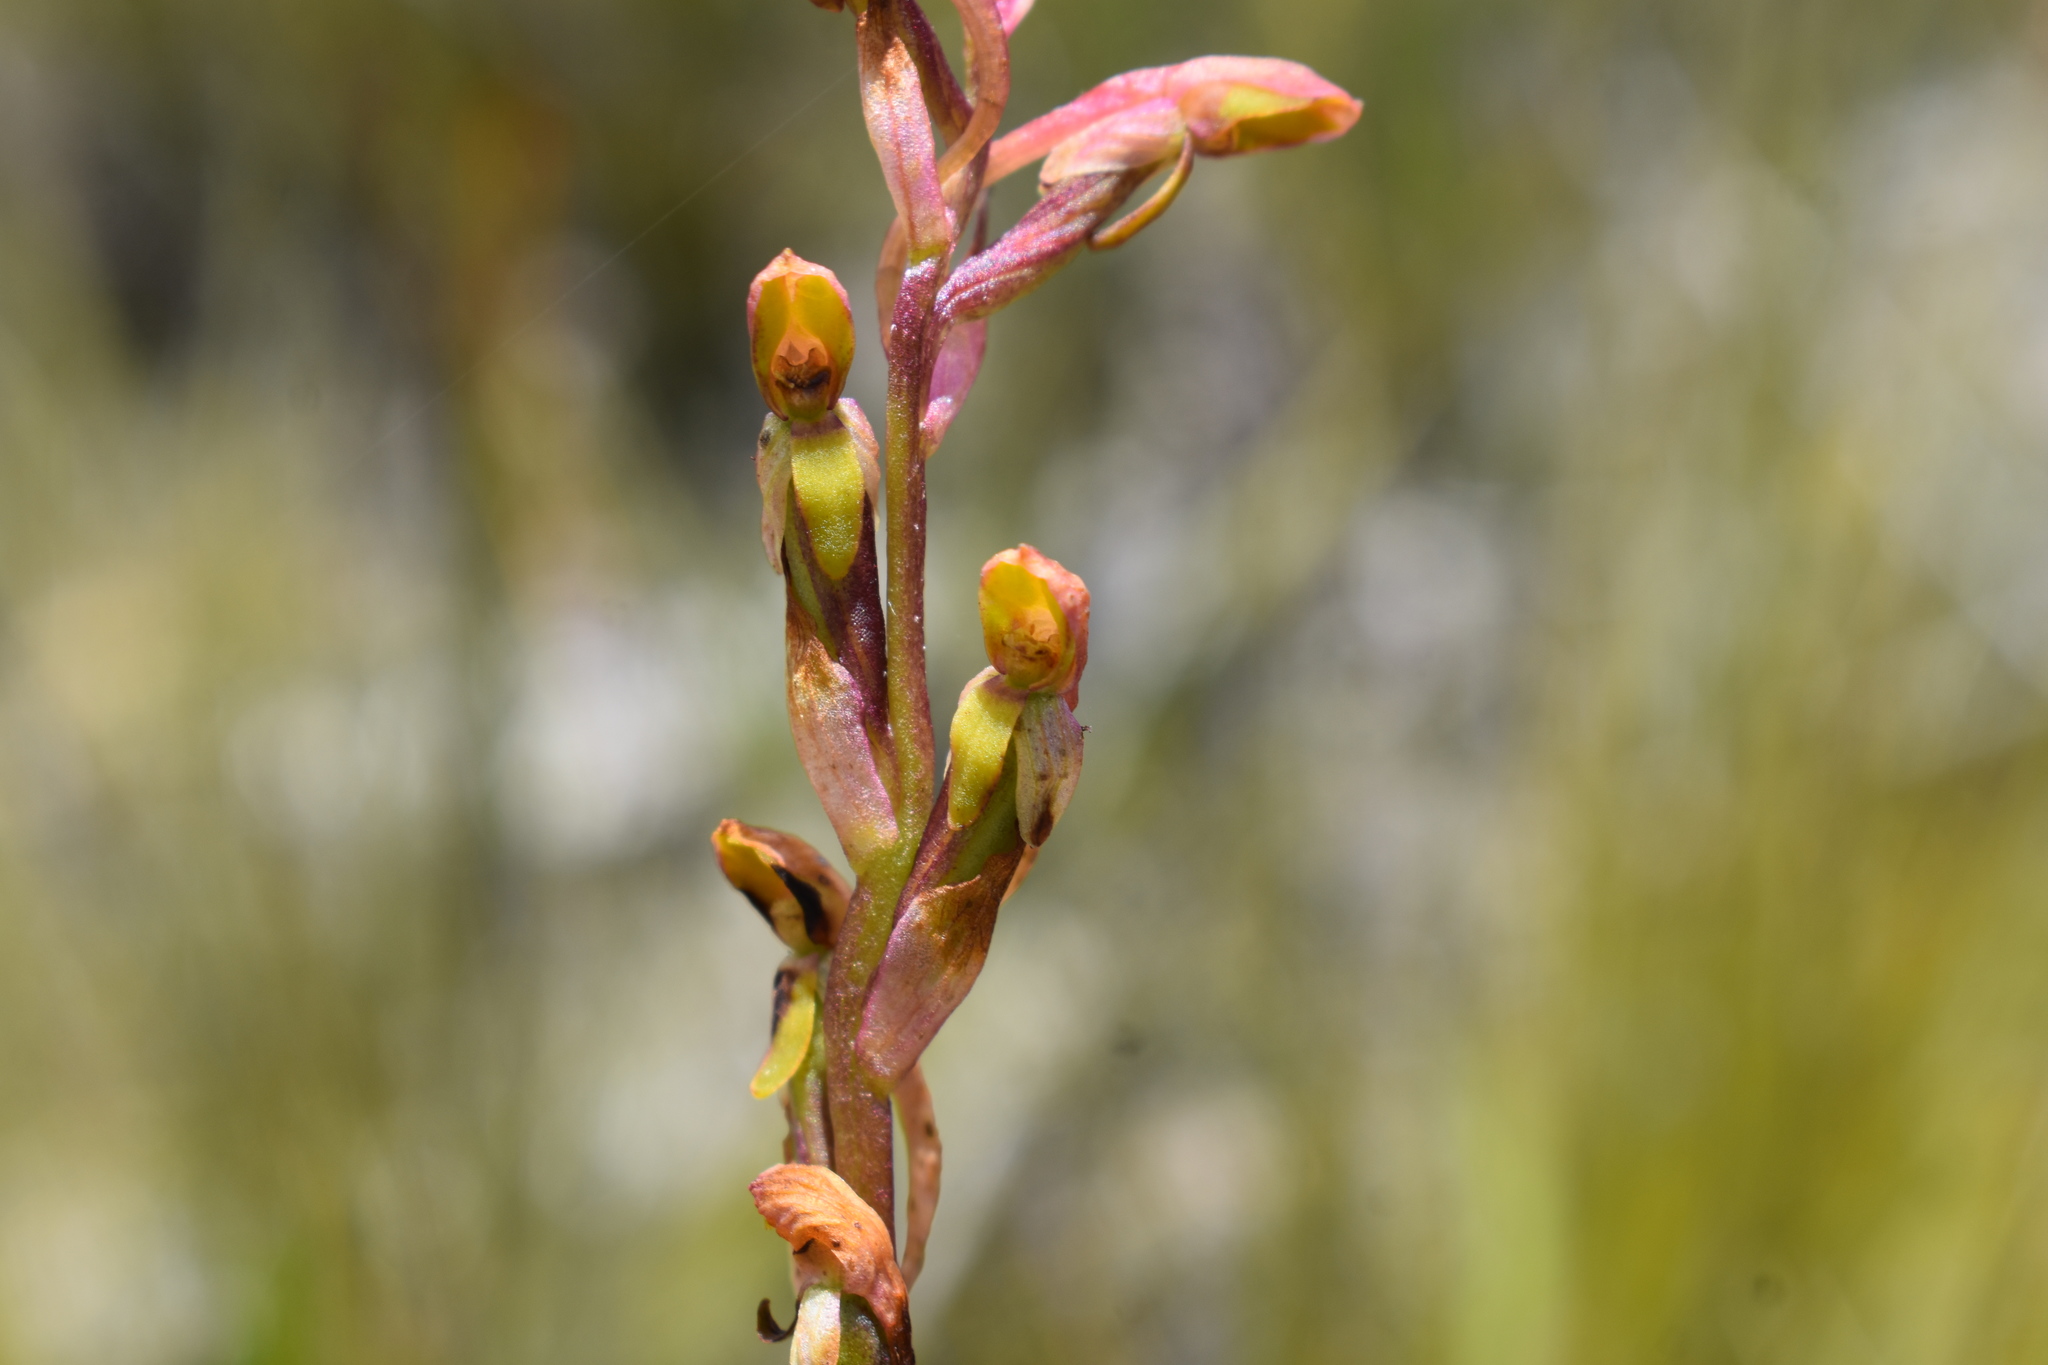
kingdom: Plantae
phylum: Tracheophyta
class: Liliopsida
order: Asparagales
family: Orchidaceae
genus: Disa
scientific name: Disa reticulata
